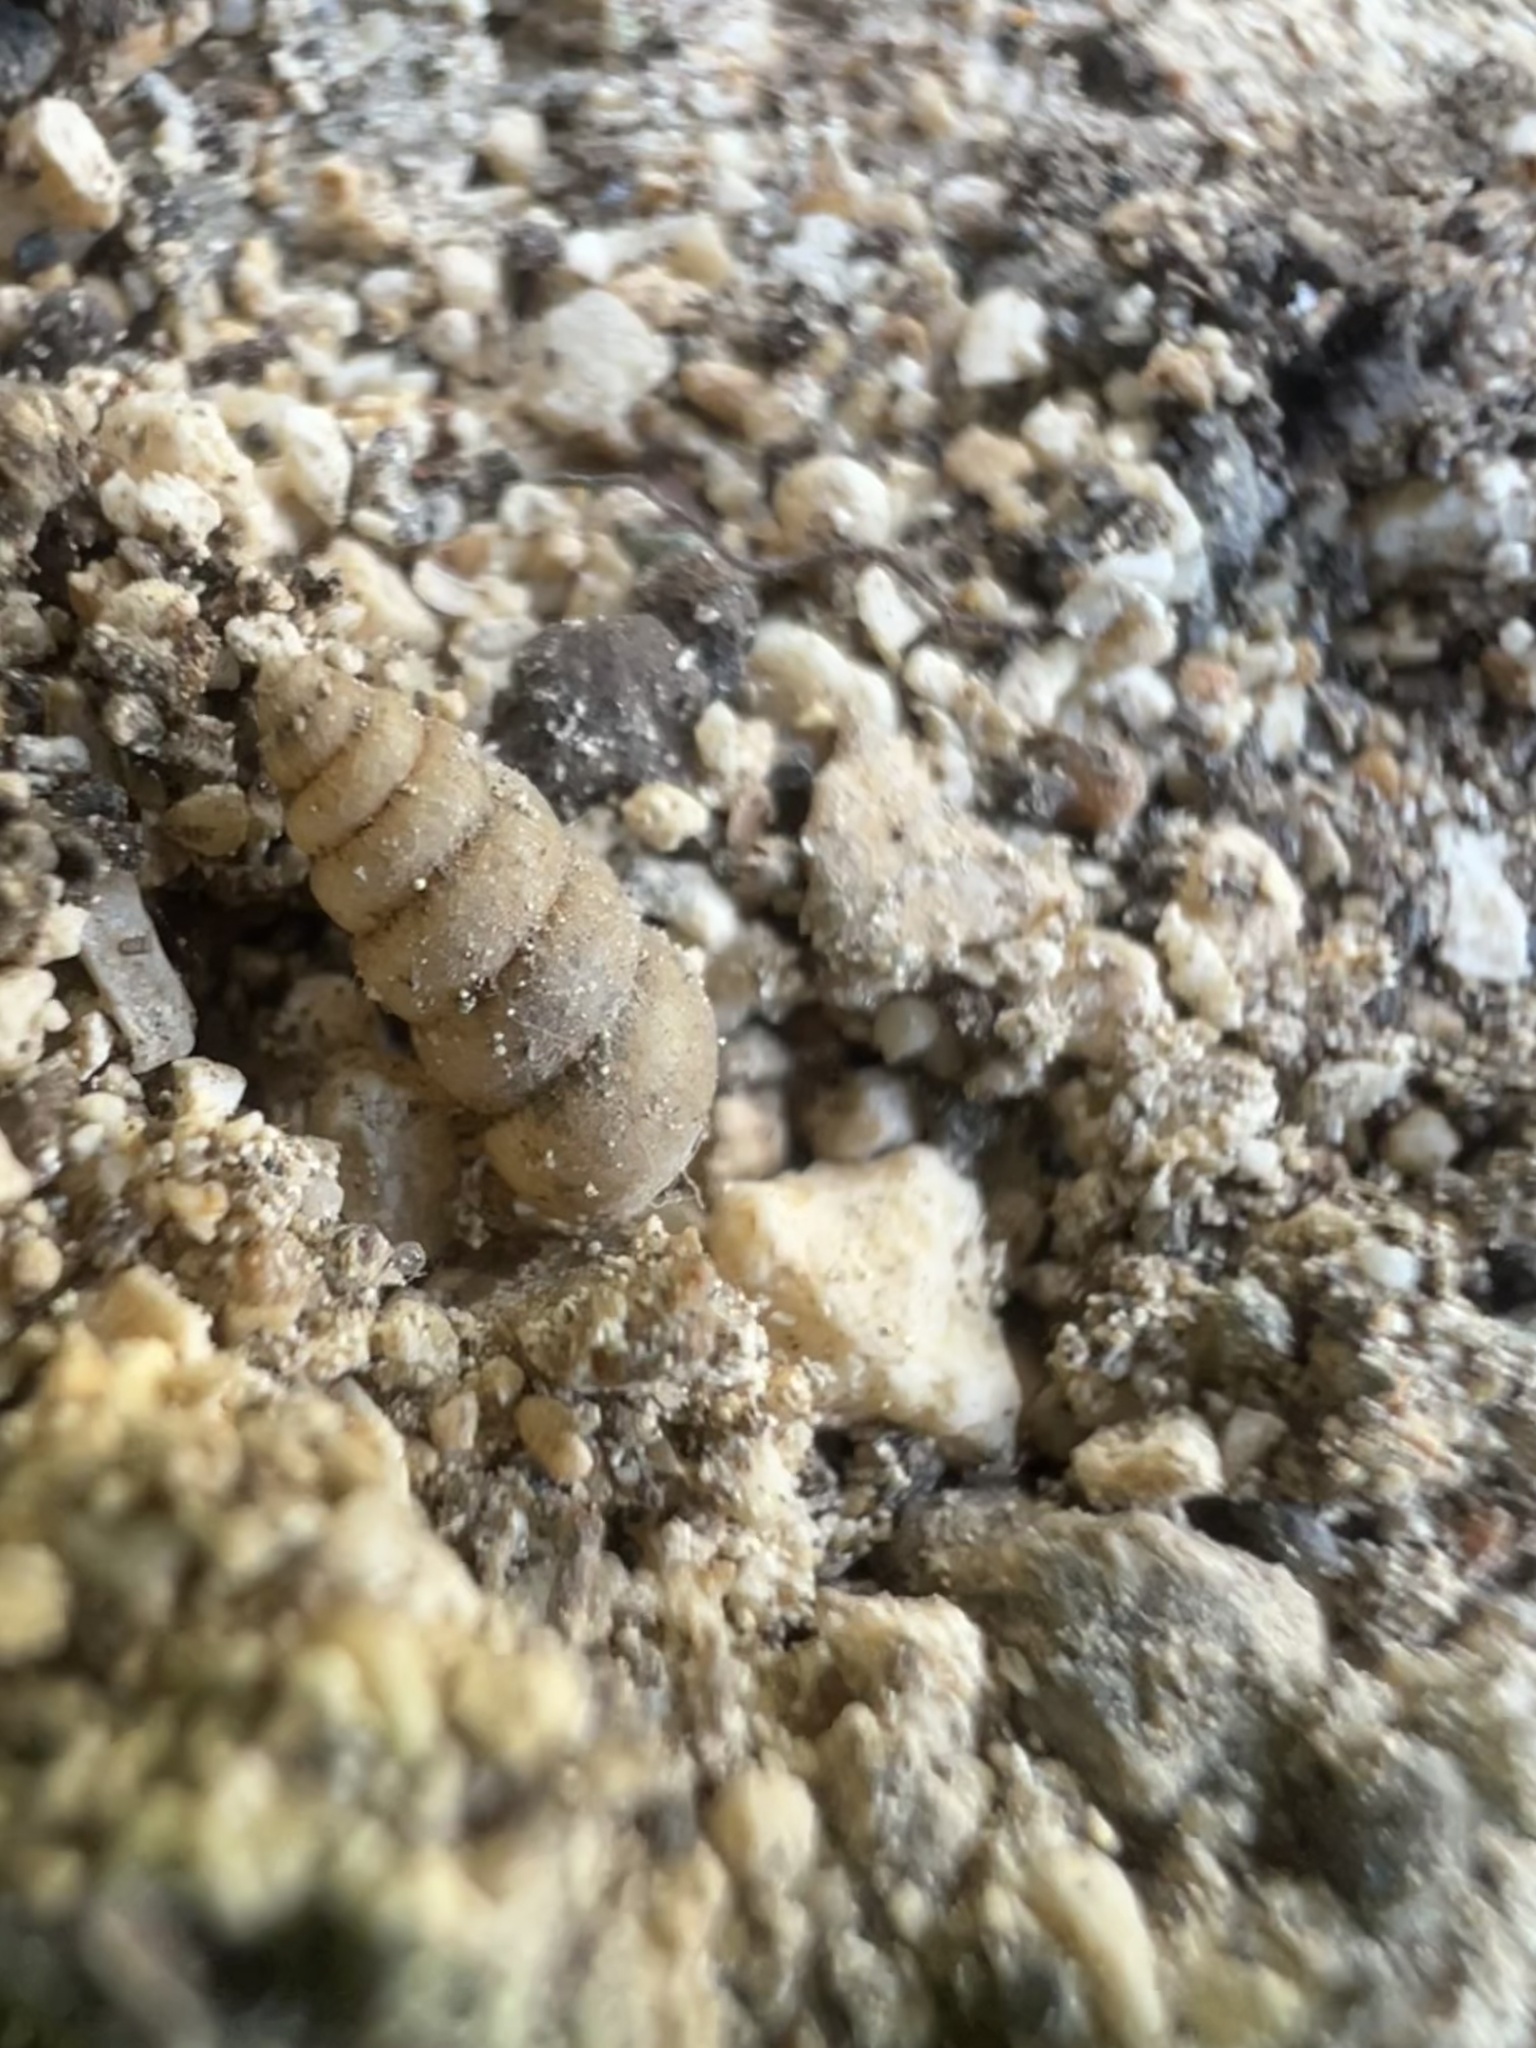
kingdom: Animalia
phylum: Mollusca
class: Gastropoda
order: Stylommatophora
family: Achatinidae
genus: Beckianum
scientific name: Beckianum beckianum
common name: Land snail
